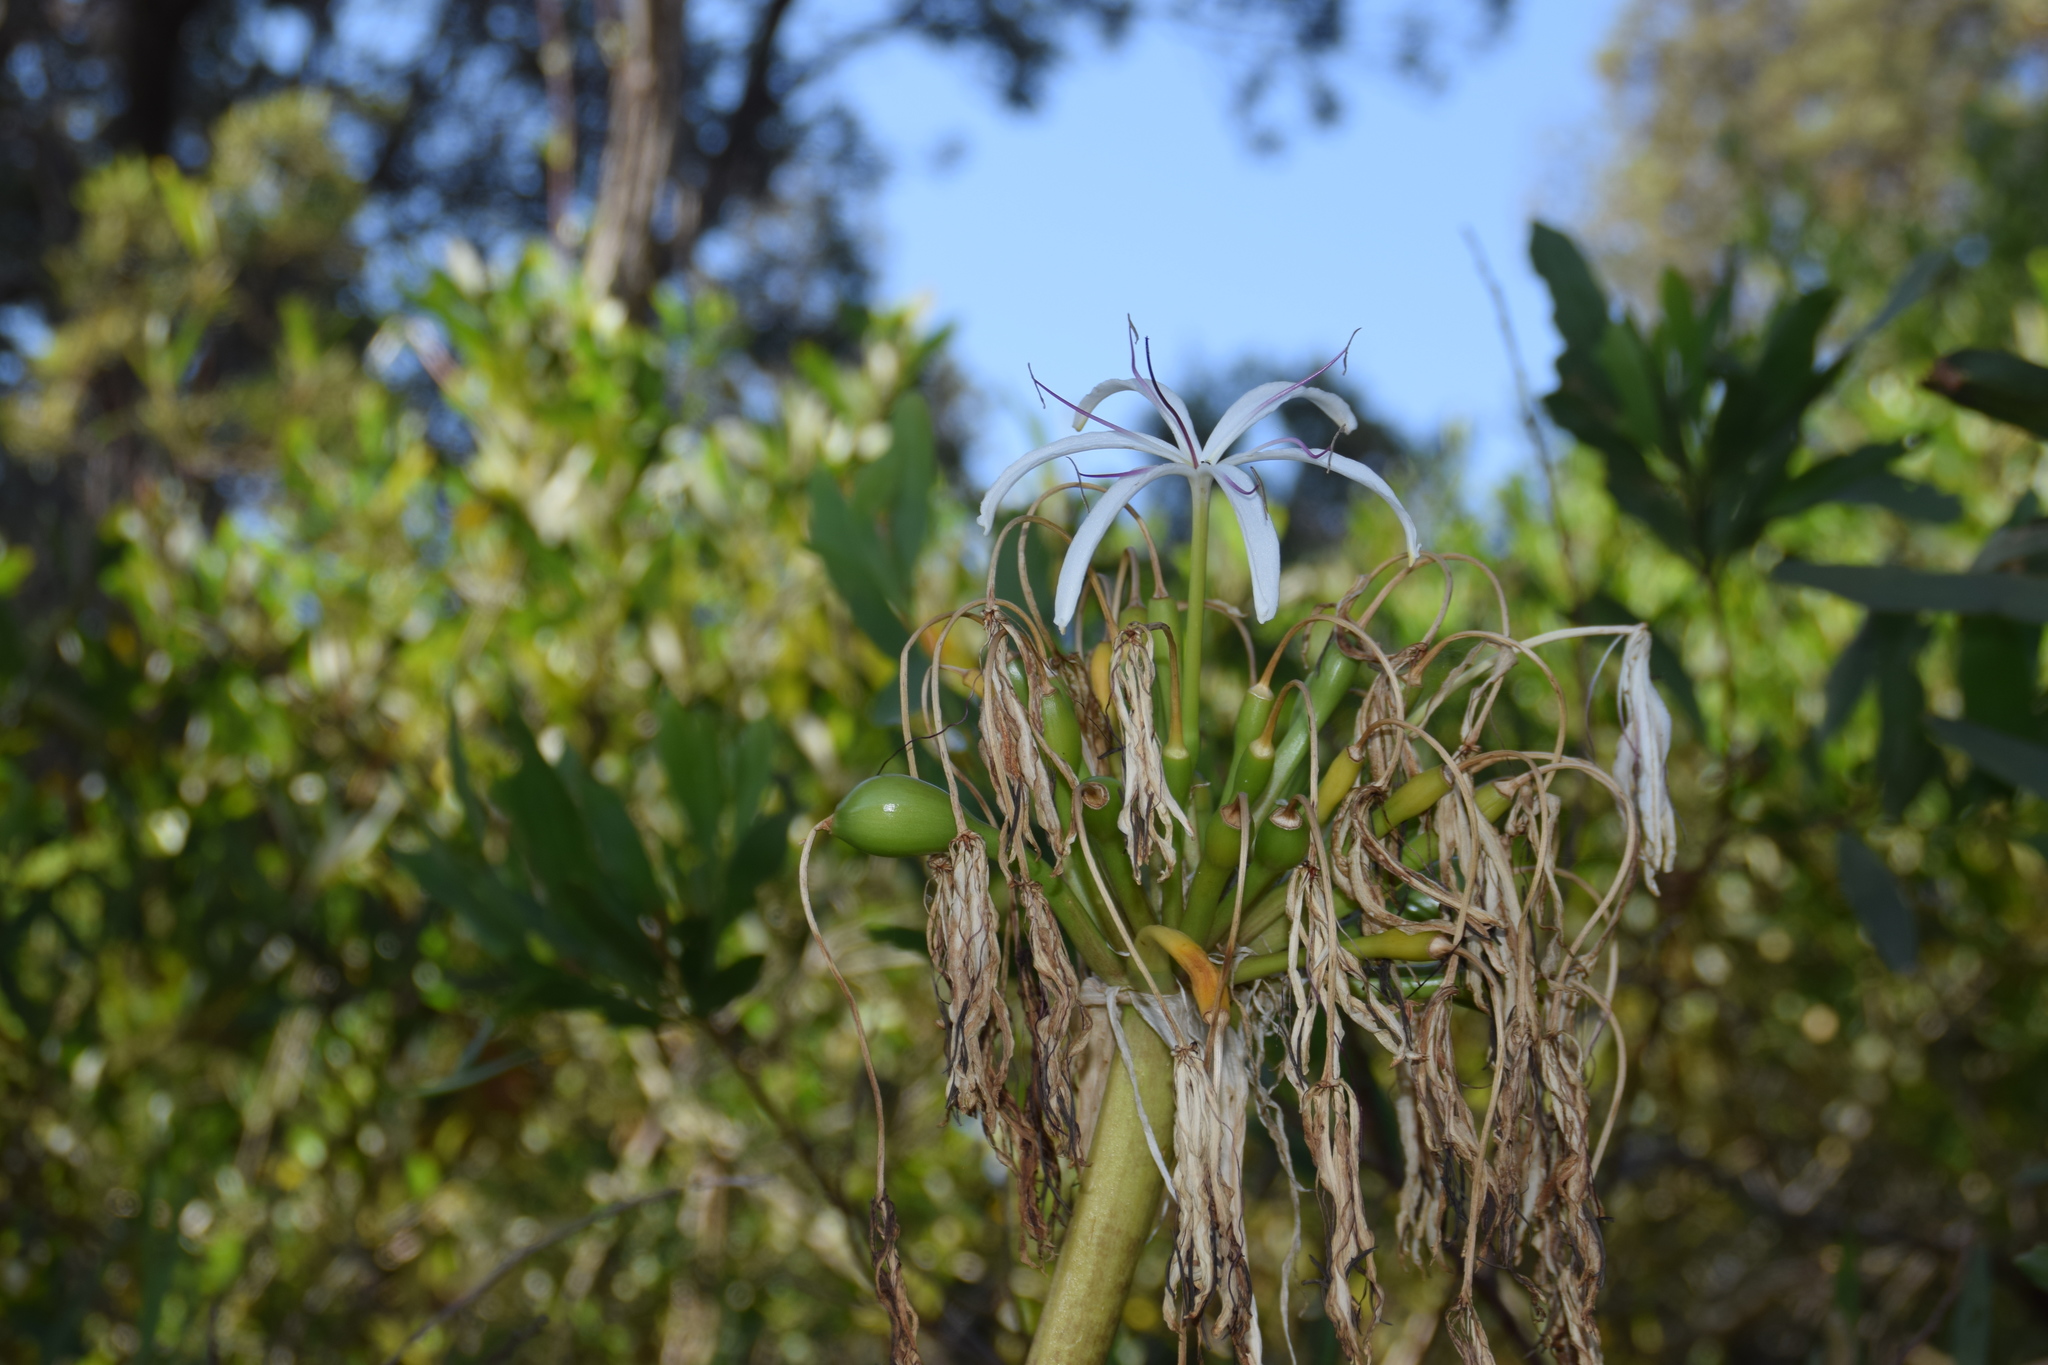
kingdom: Plantae
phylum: Tracheophyta
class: Liliopsida
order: Asparagales
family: Amaryllidaceae
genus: Crinum
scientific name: Crinum pedunculatum
